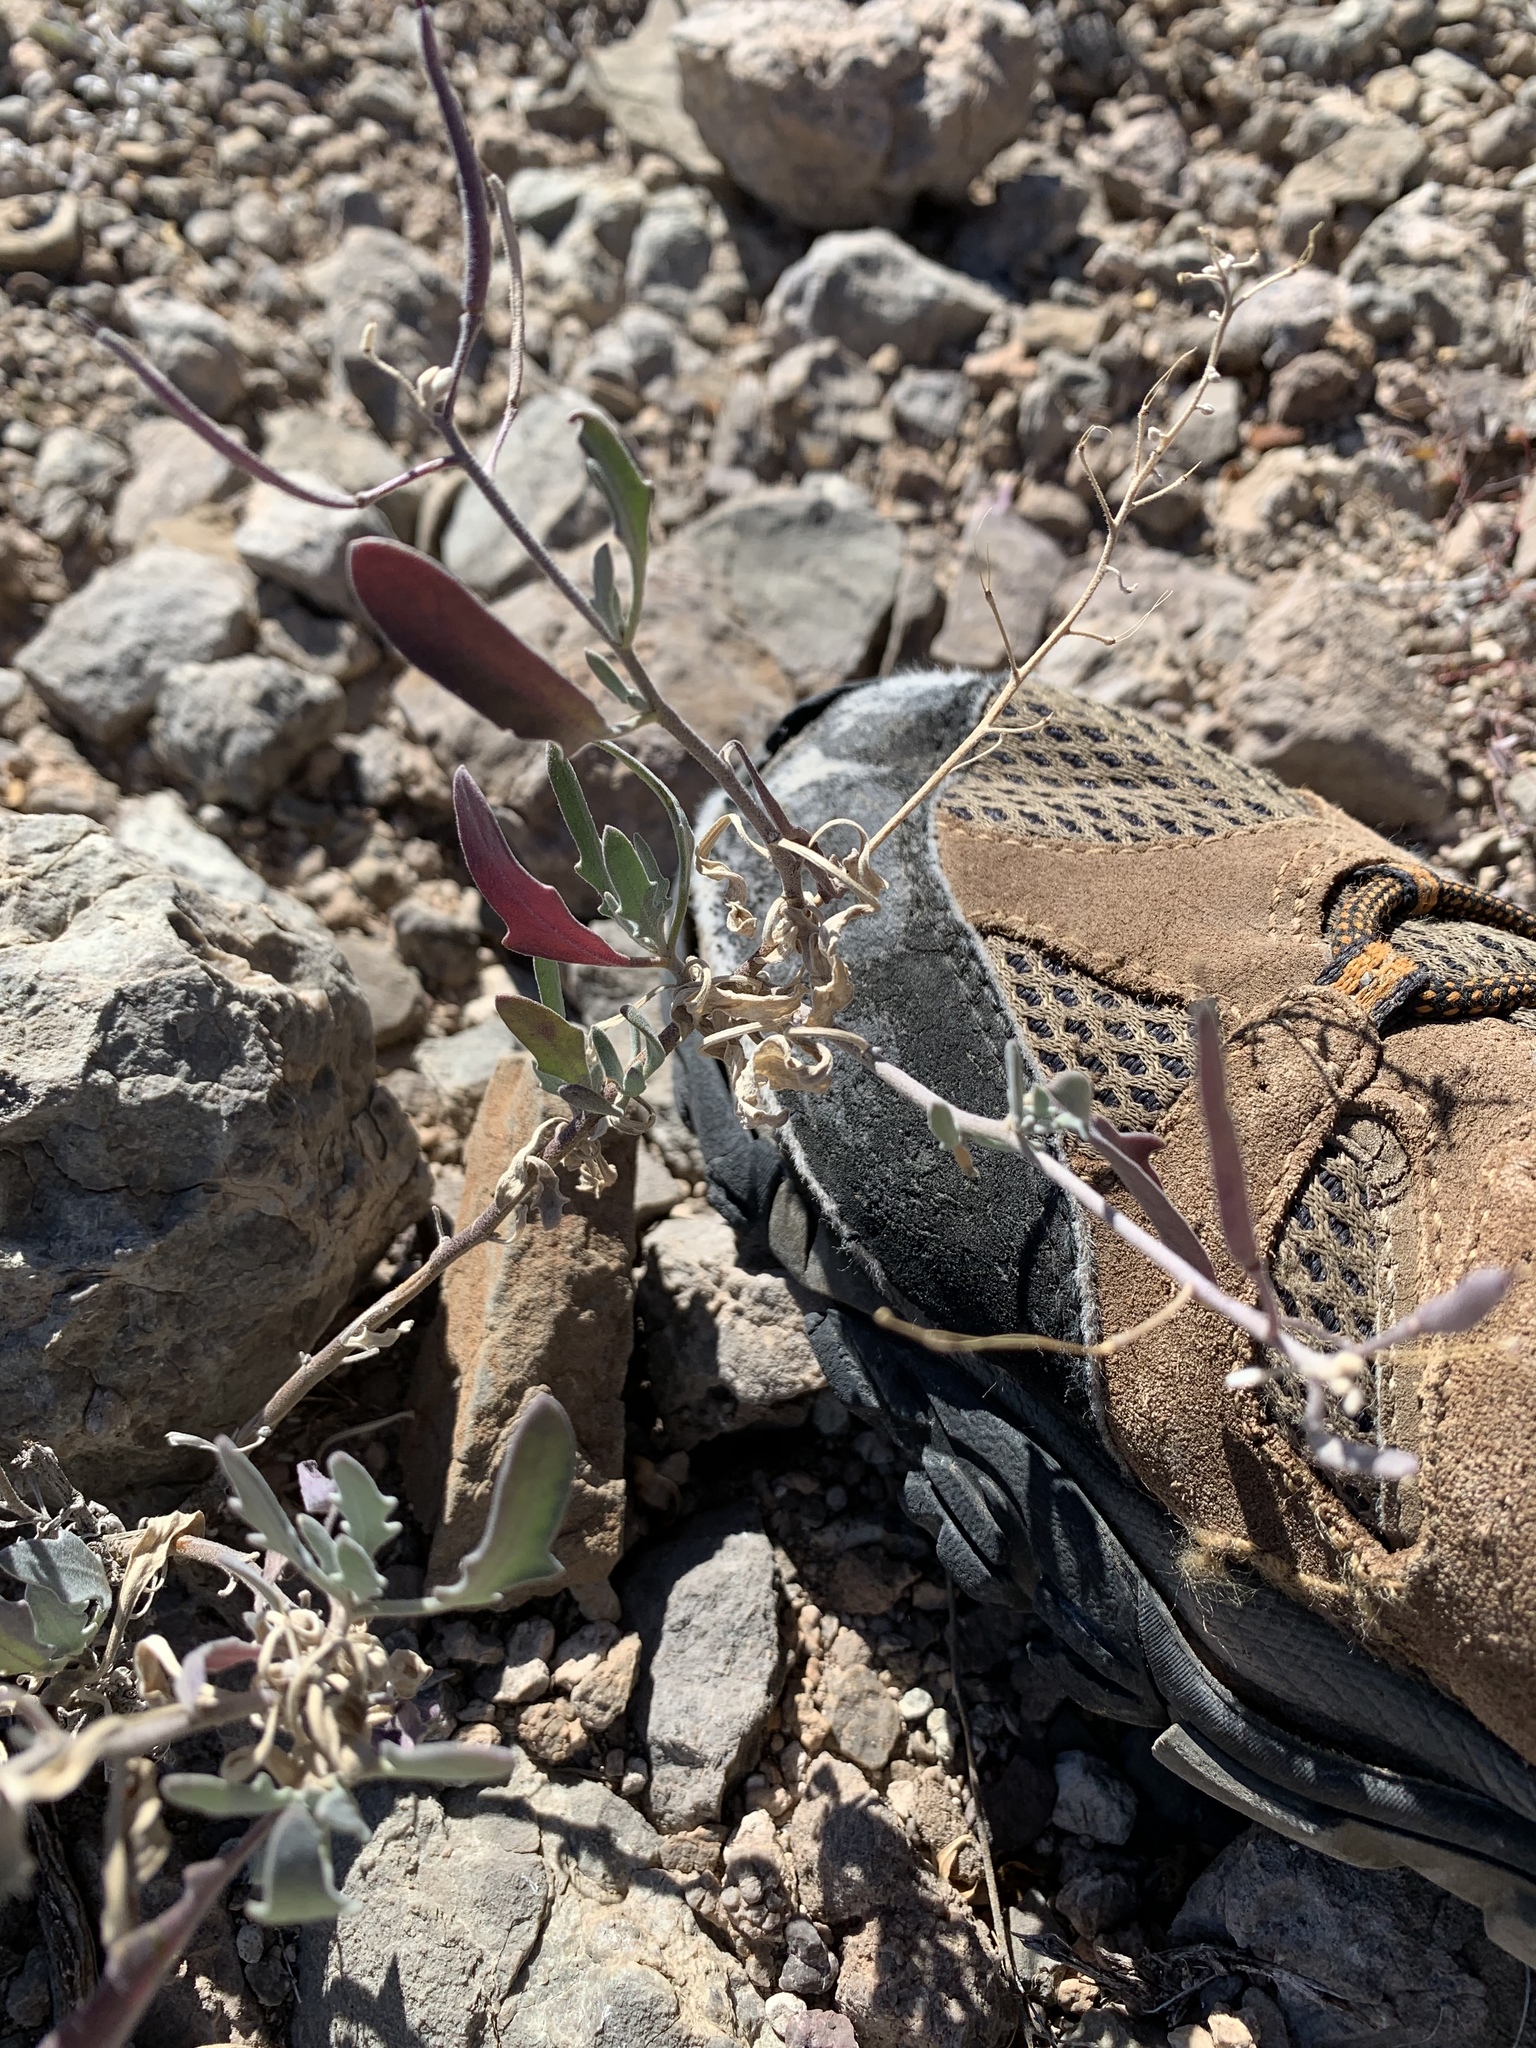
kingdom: Plantae
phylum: Tracheophyta
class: Magnoliopsida
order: Brassicales
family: Brassicaceae
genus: Nerisyrenia
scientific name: Nerisyrenia camporum
